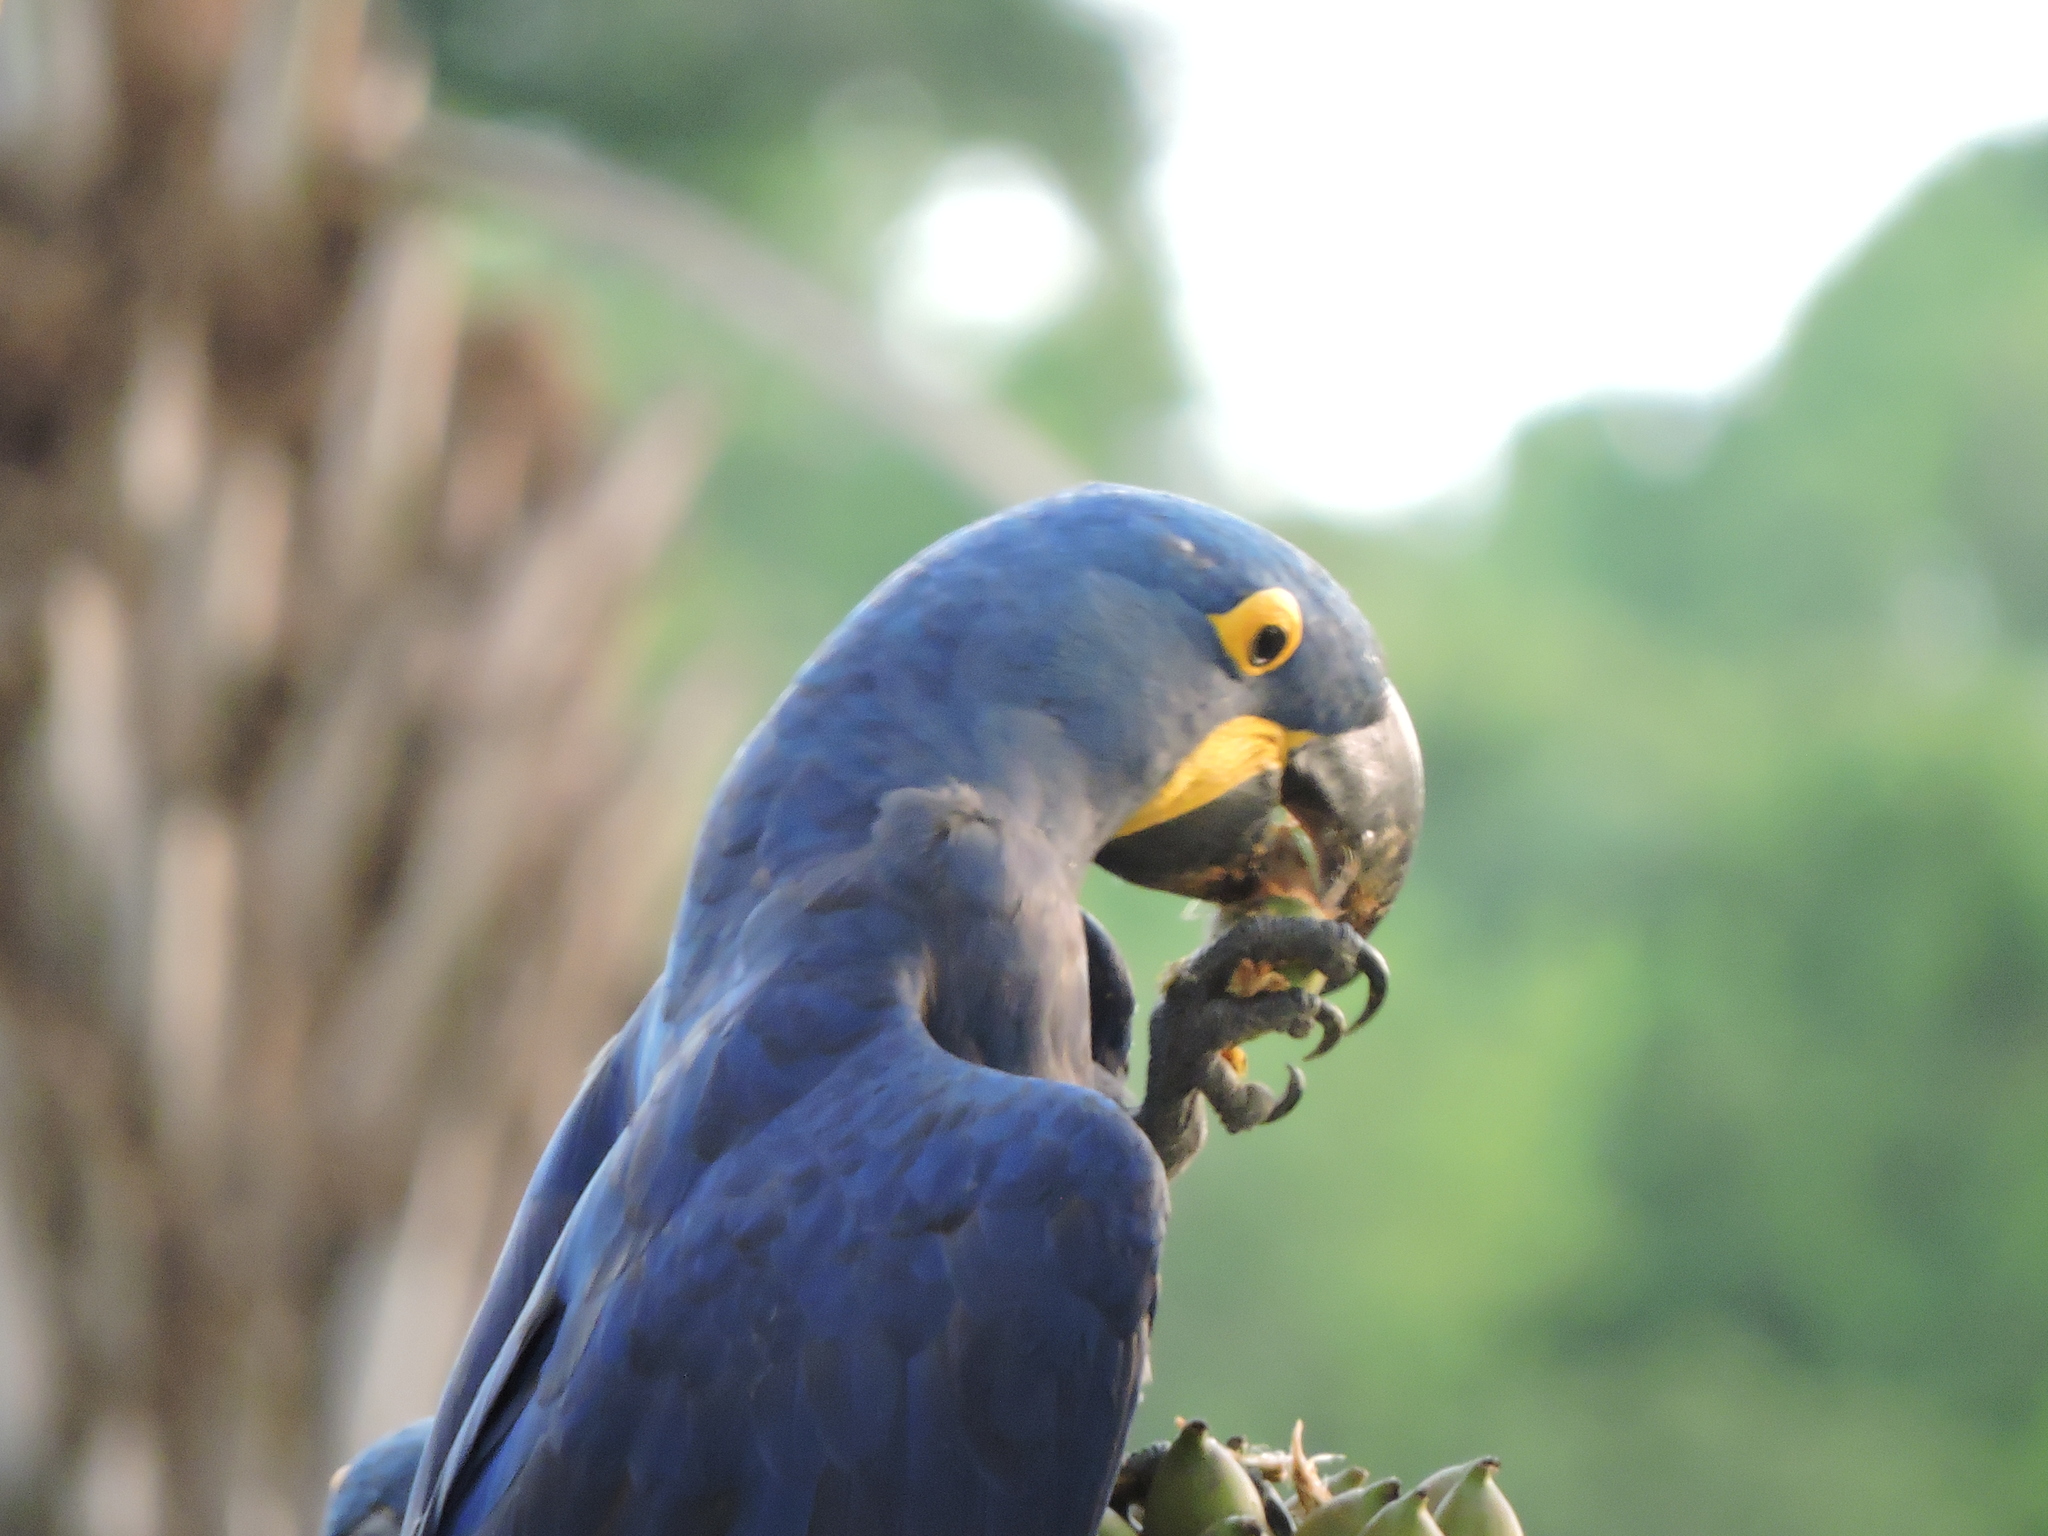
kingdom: Animalia
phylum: Chordata
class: Aves
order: Psittaciformes
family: Psittacidae
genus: Anodorhynchus
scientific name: Anodorhynchus hyacinthinus
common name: Hyacinth macaw
